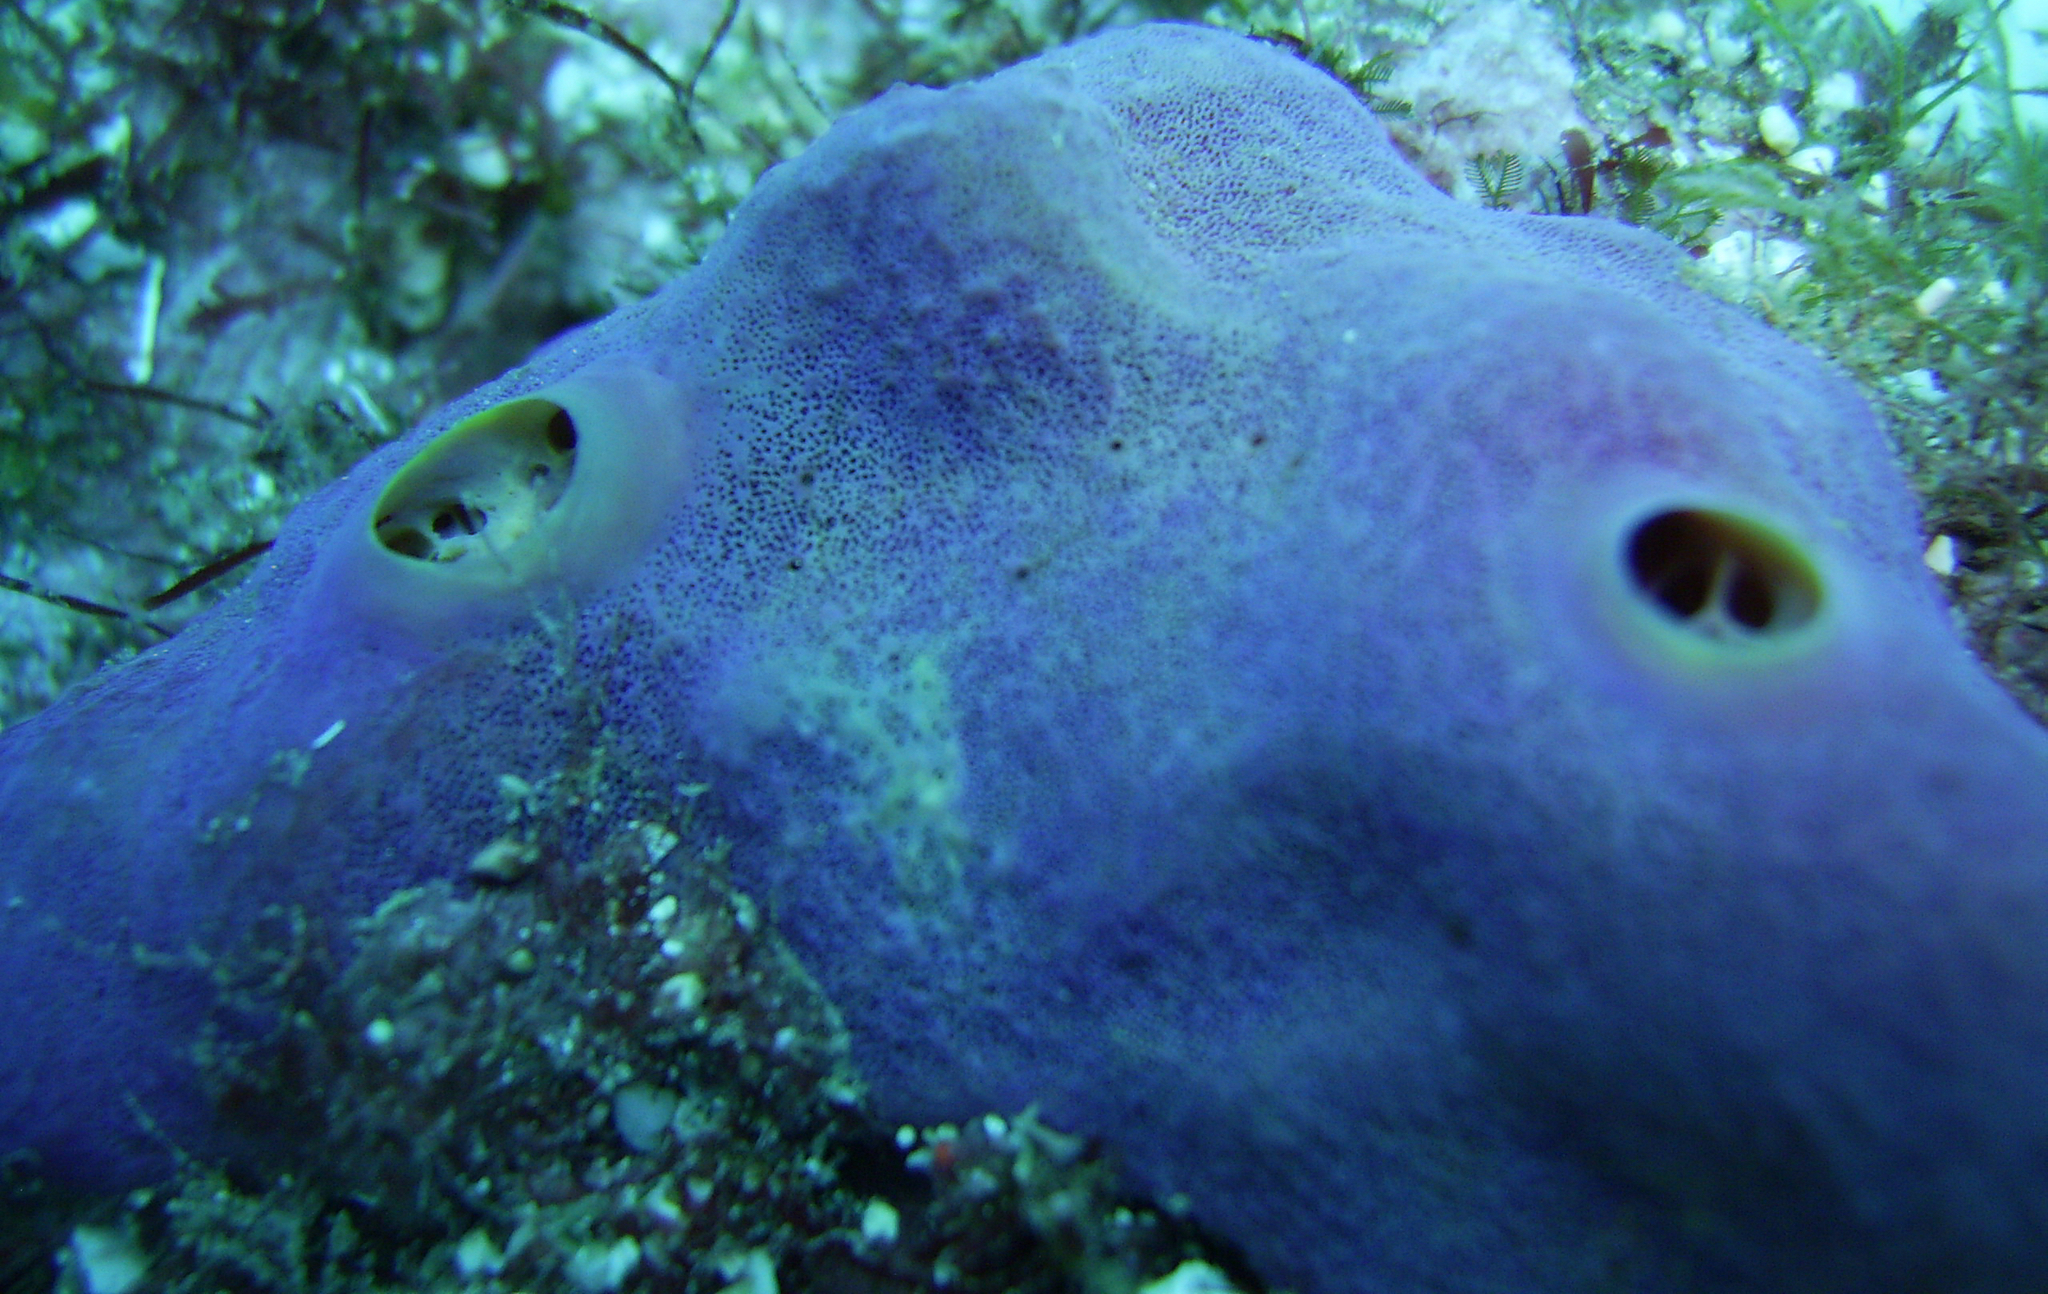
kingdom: Animalia
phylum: Porifera
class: Demospongiae
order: Verongiida
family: Aplysinidae
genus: Aplysina
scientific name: Aplysina cauliformis
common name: Branching candle sponge
